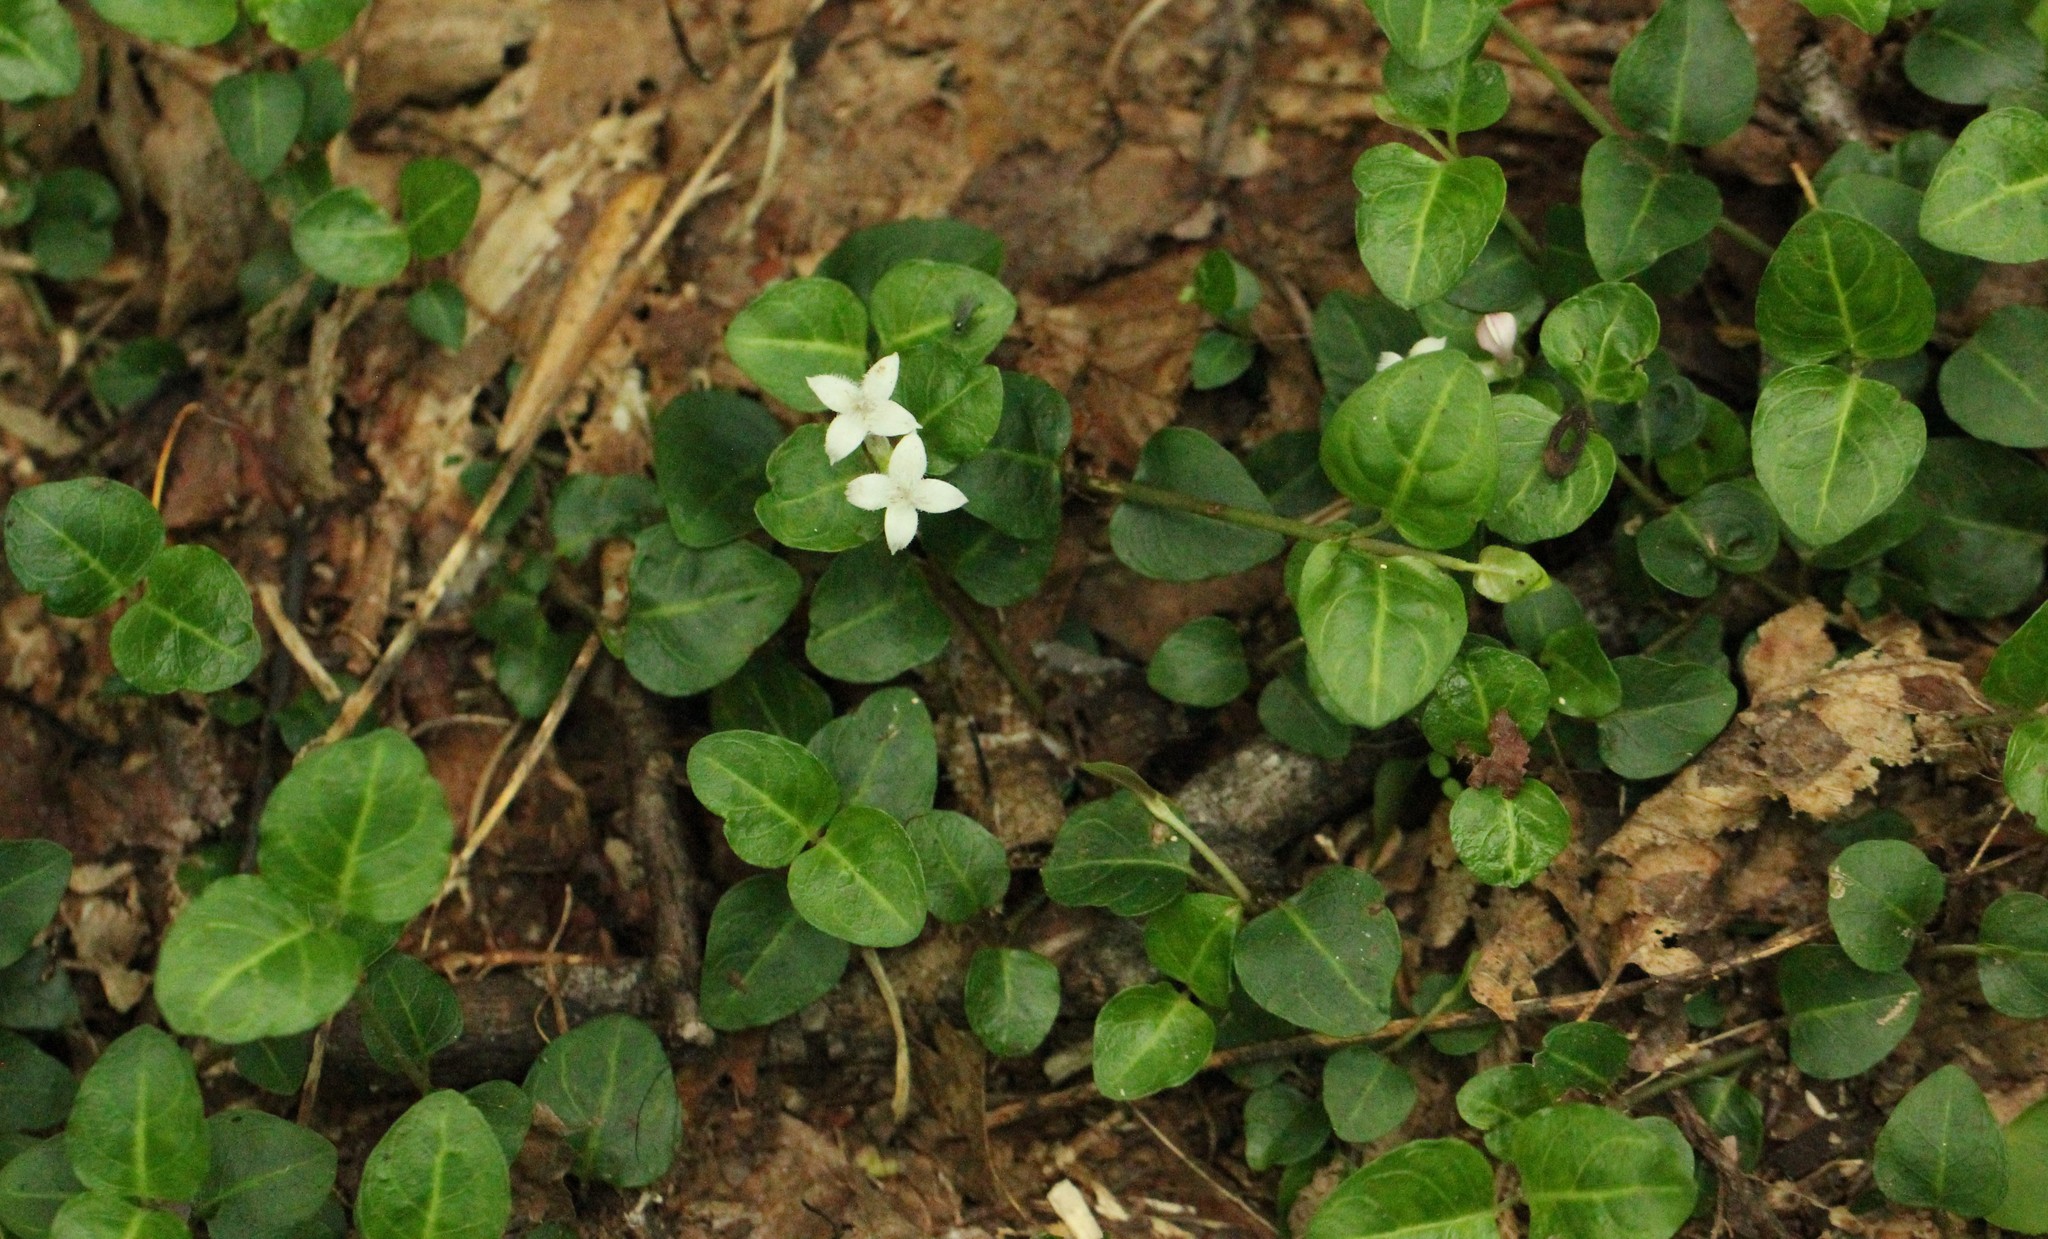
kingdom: Plantae
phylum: Tracheophyta
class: Magnoliopsida
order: Gentianales
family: Rubiaceae
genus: Mitchella
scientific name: Mitchella repens
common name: Partridge-berry
